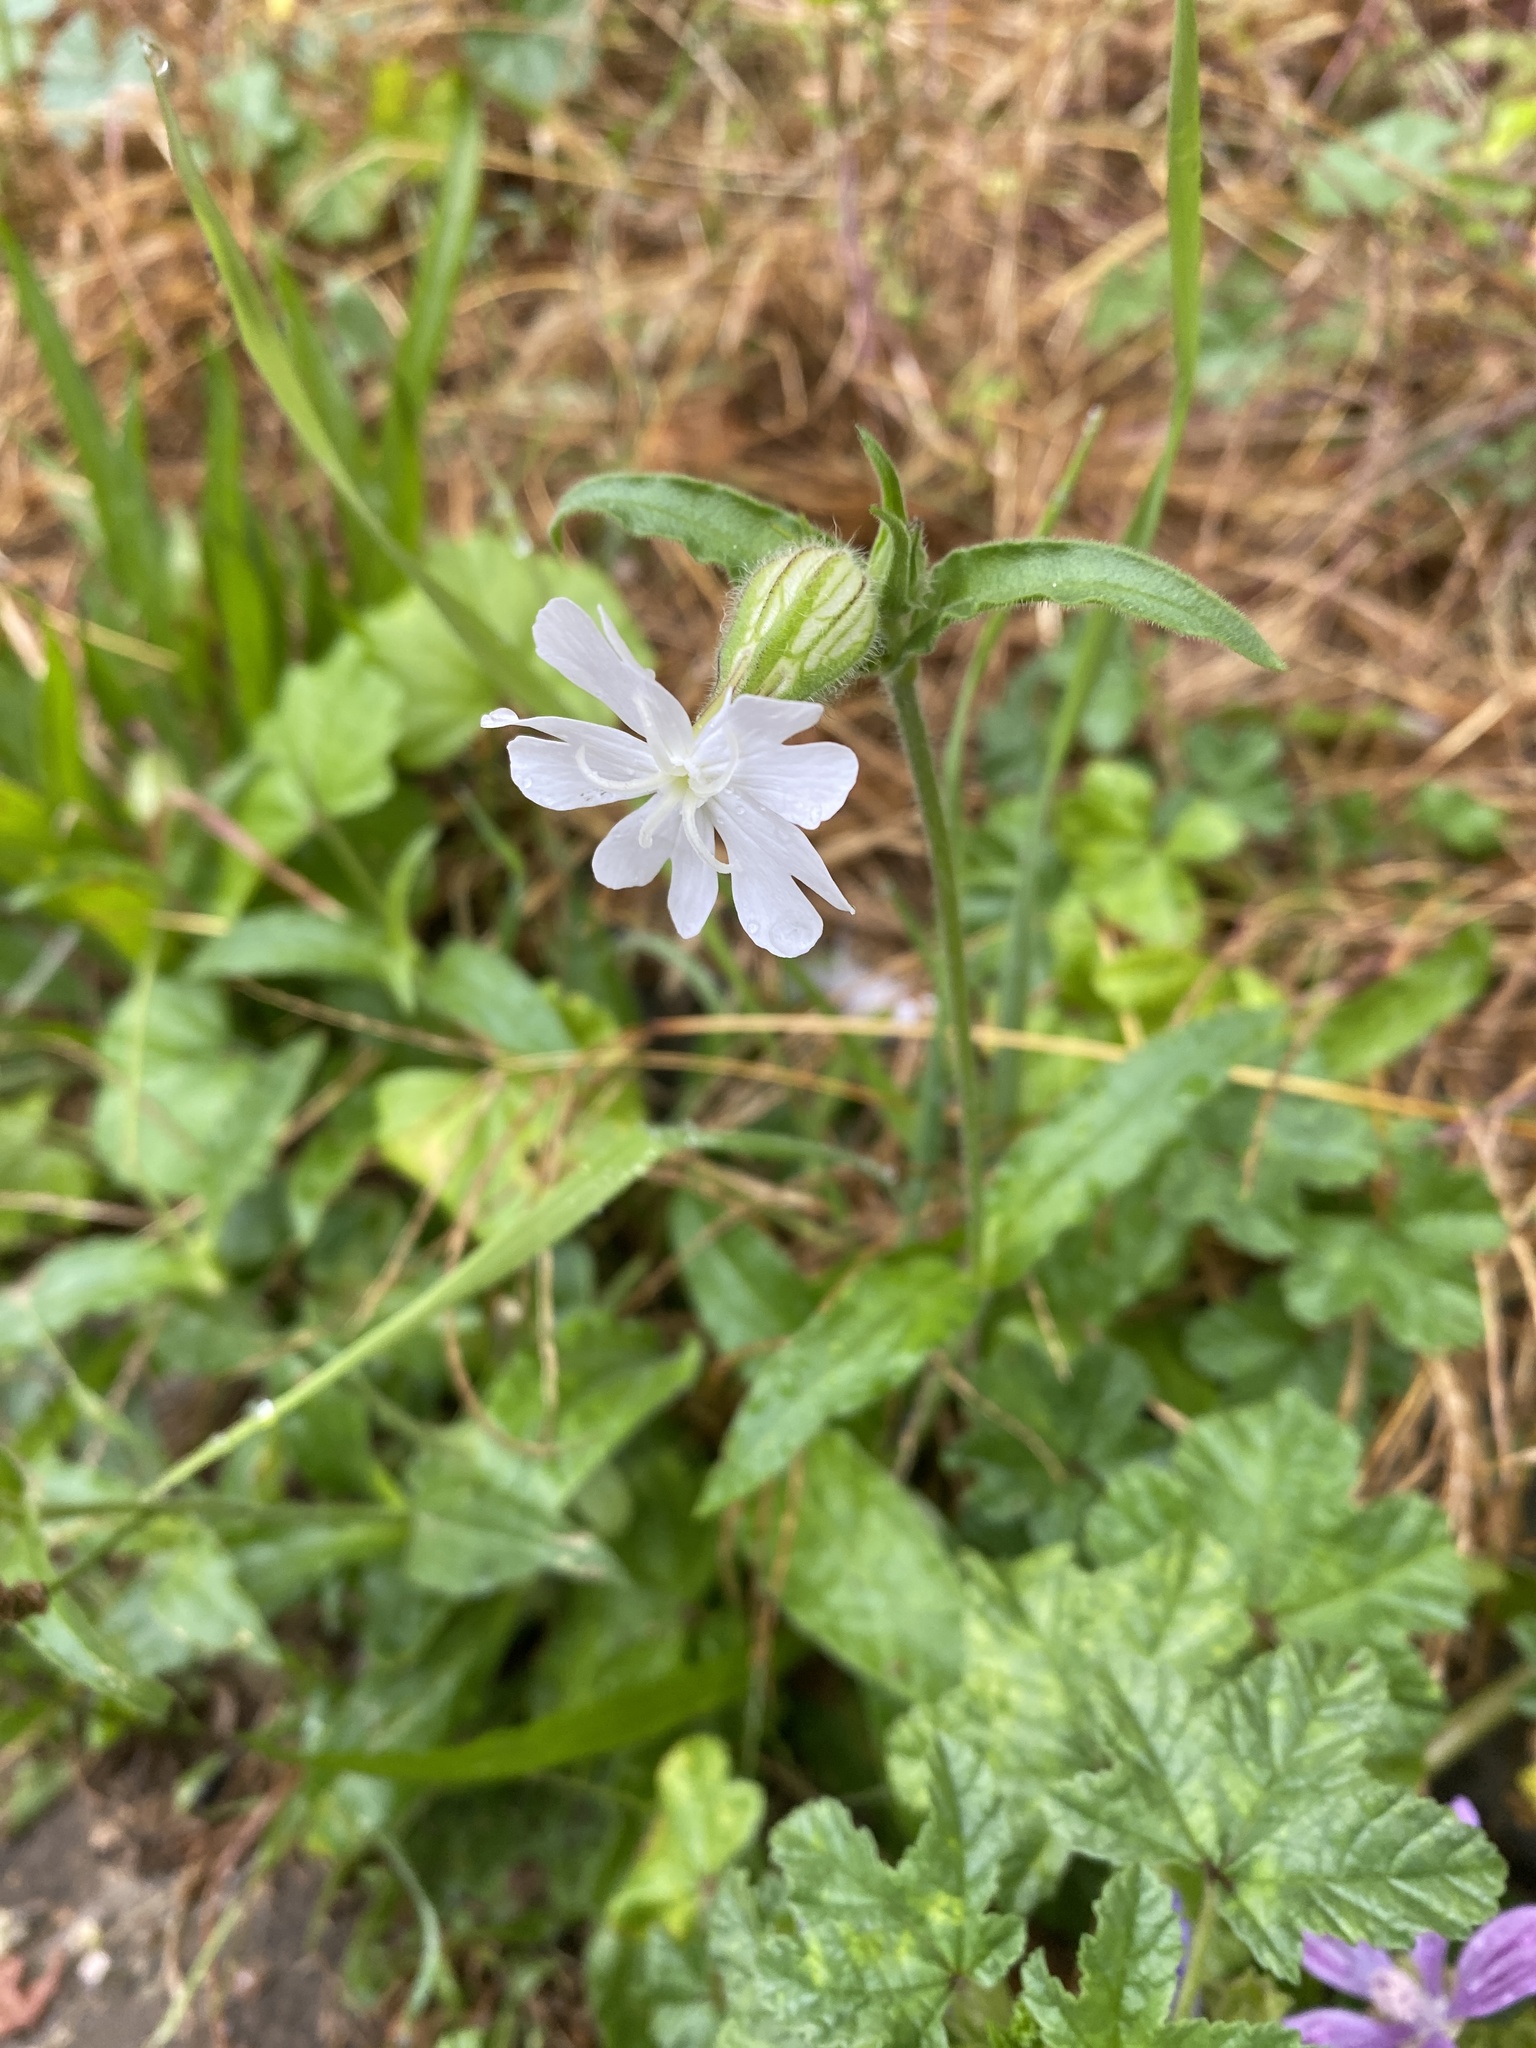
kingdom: Plantae
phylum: Tracheophyta
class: Magnoliopsida
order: Caryophyllales
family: Caryophyllaceae
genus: Silene
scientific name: Silene latifolia
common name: White campion
